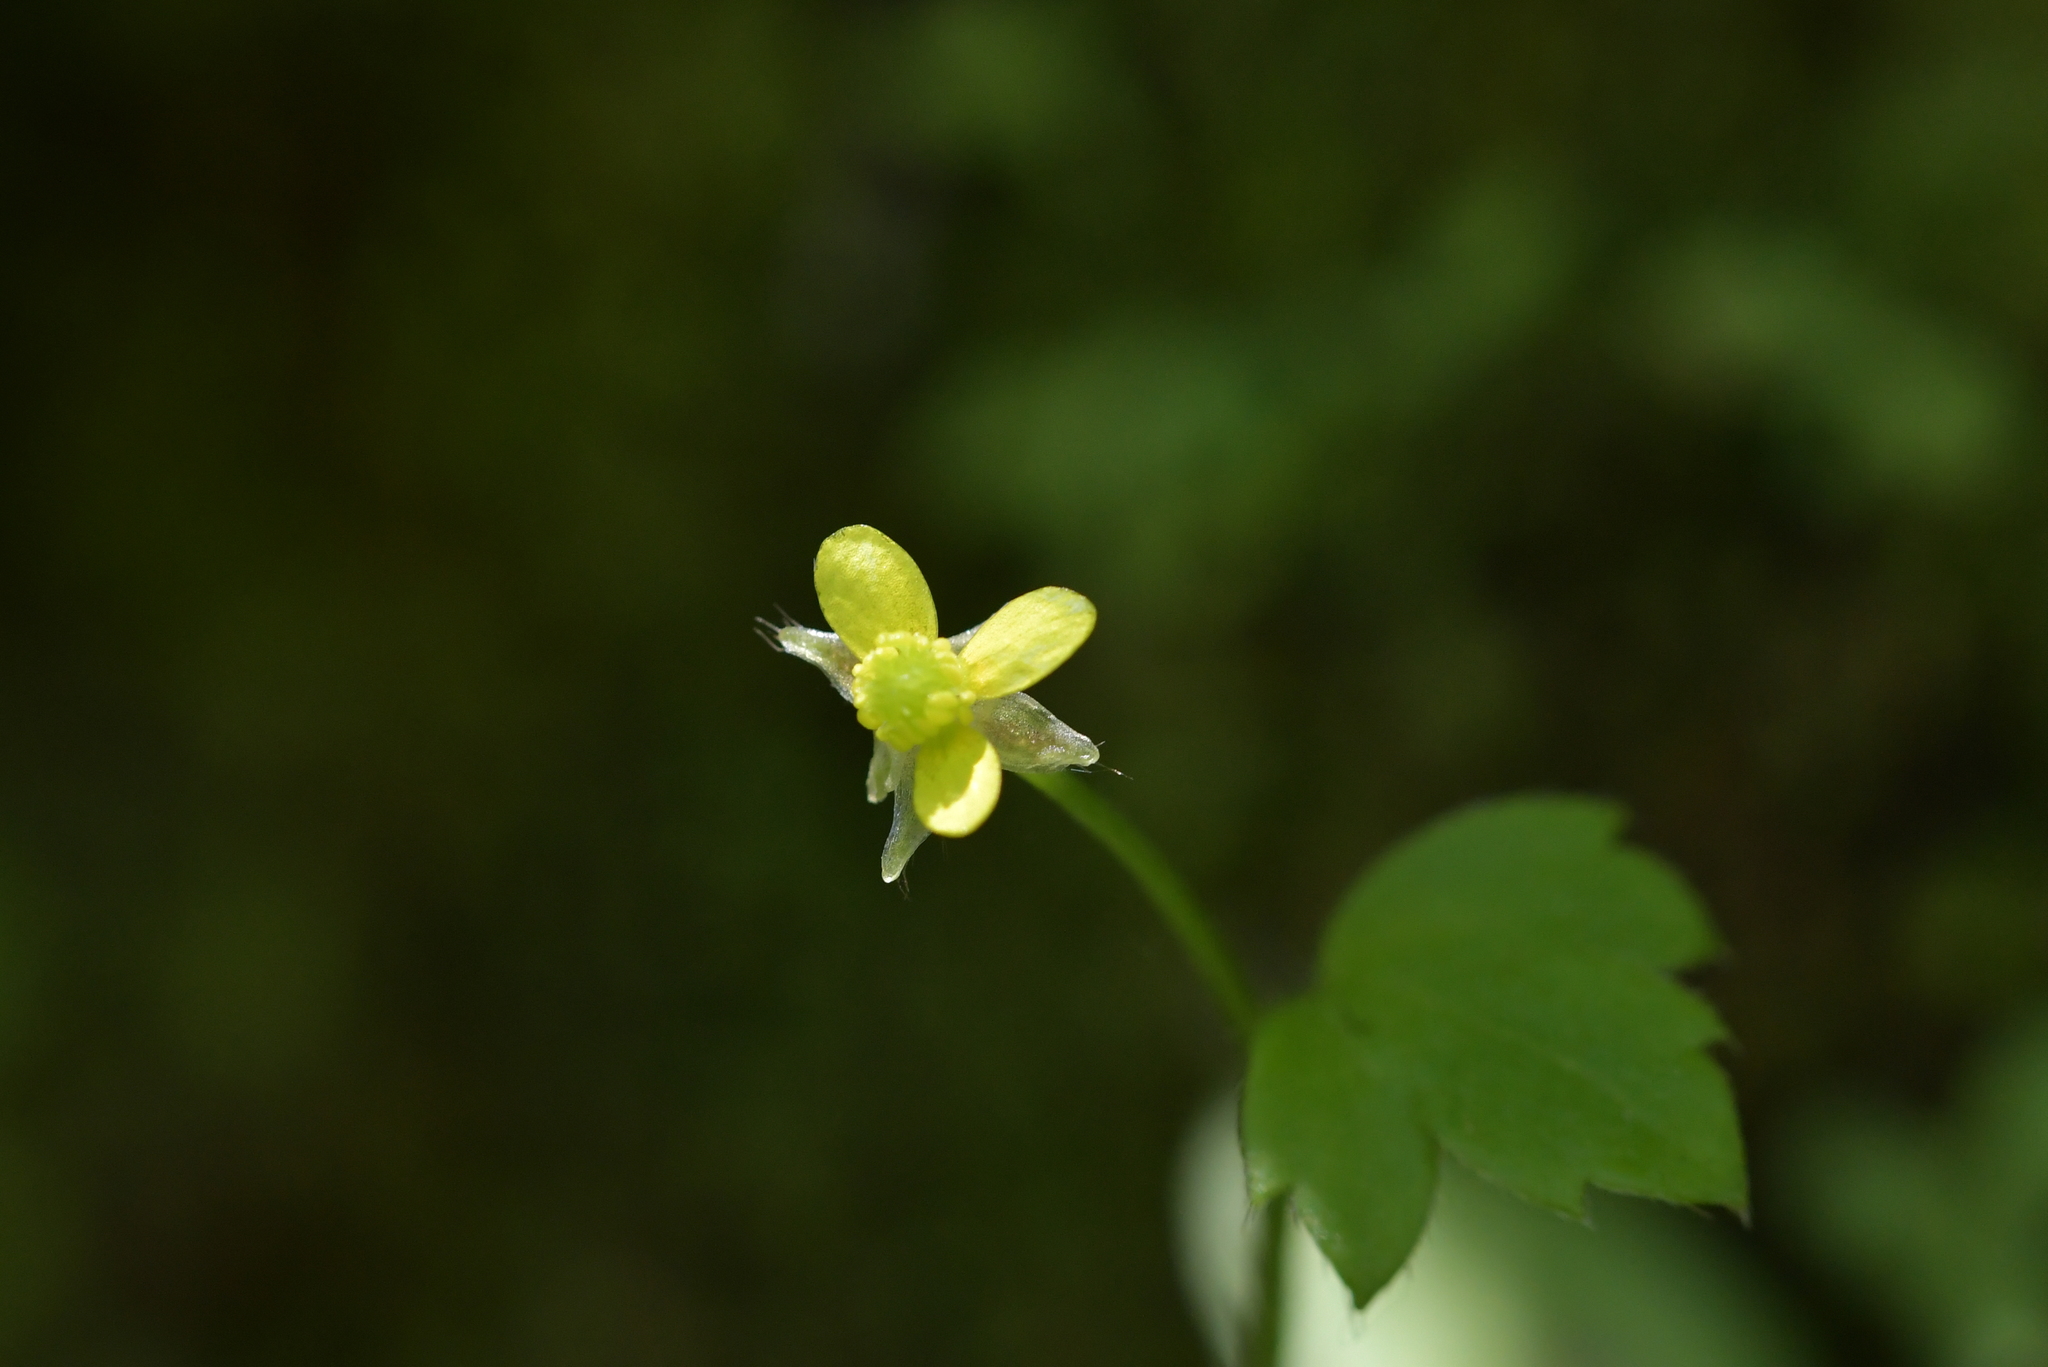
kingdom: Plantae
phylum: Tracheophyta
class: Magnoliopsida
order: Ranunculales
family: Ranunculaceae
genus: Ranunculus
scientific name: Ranunculus reflexus
